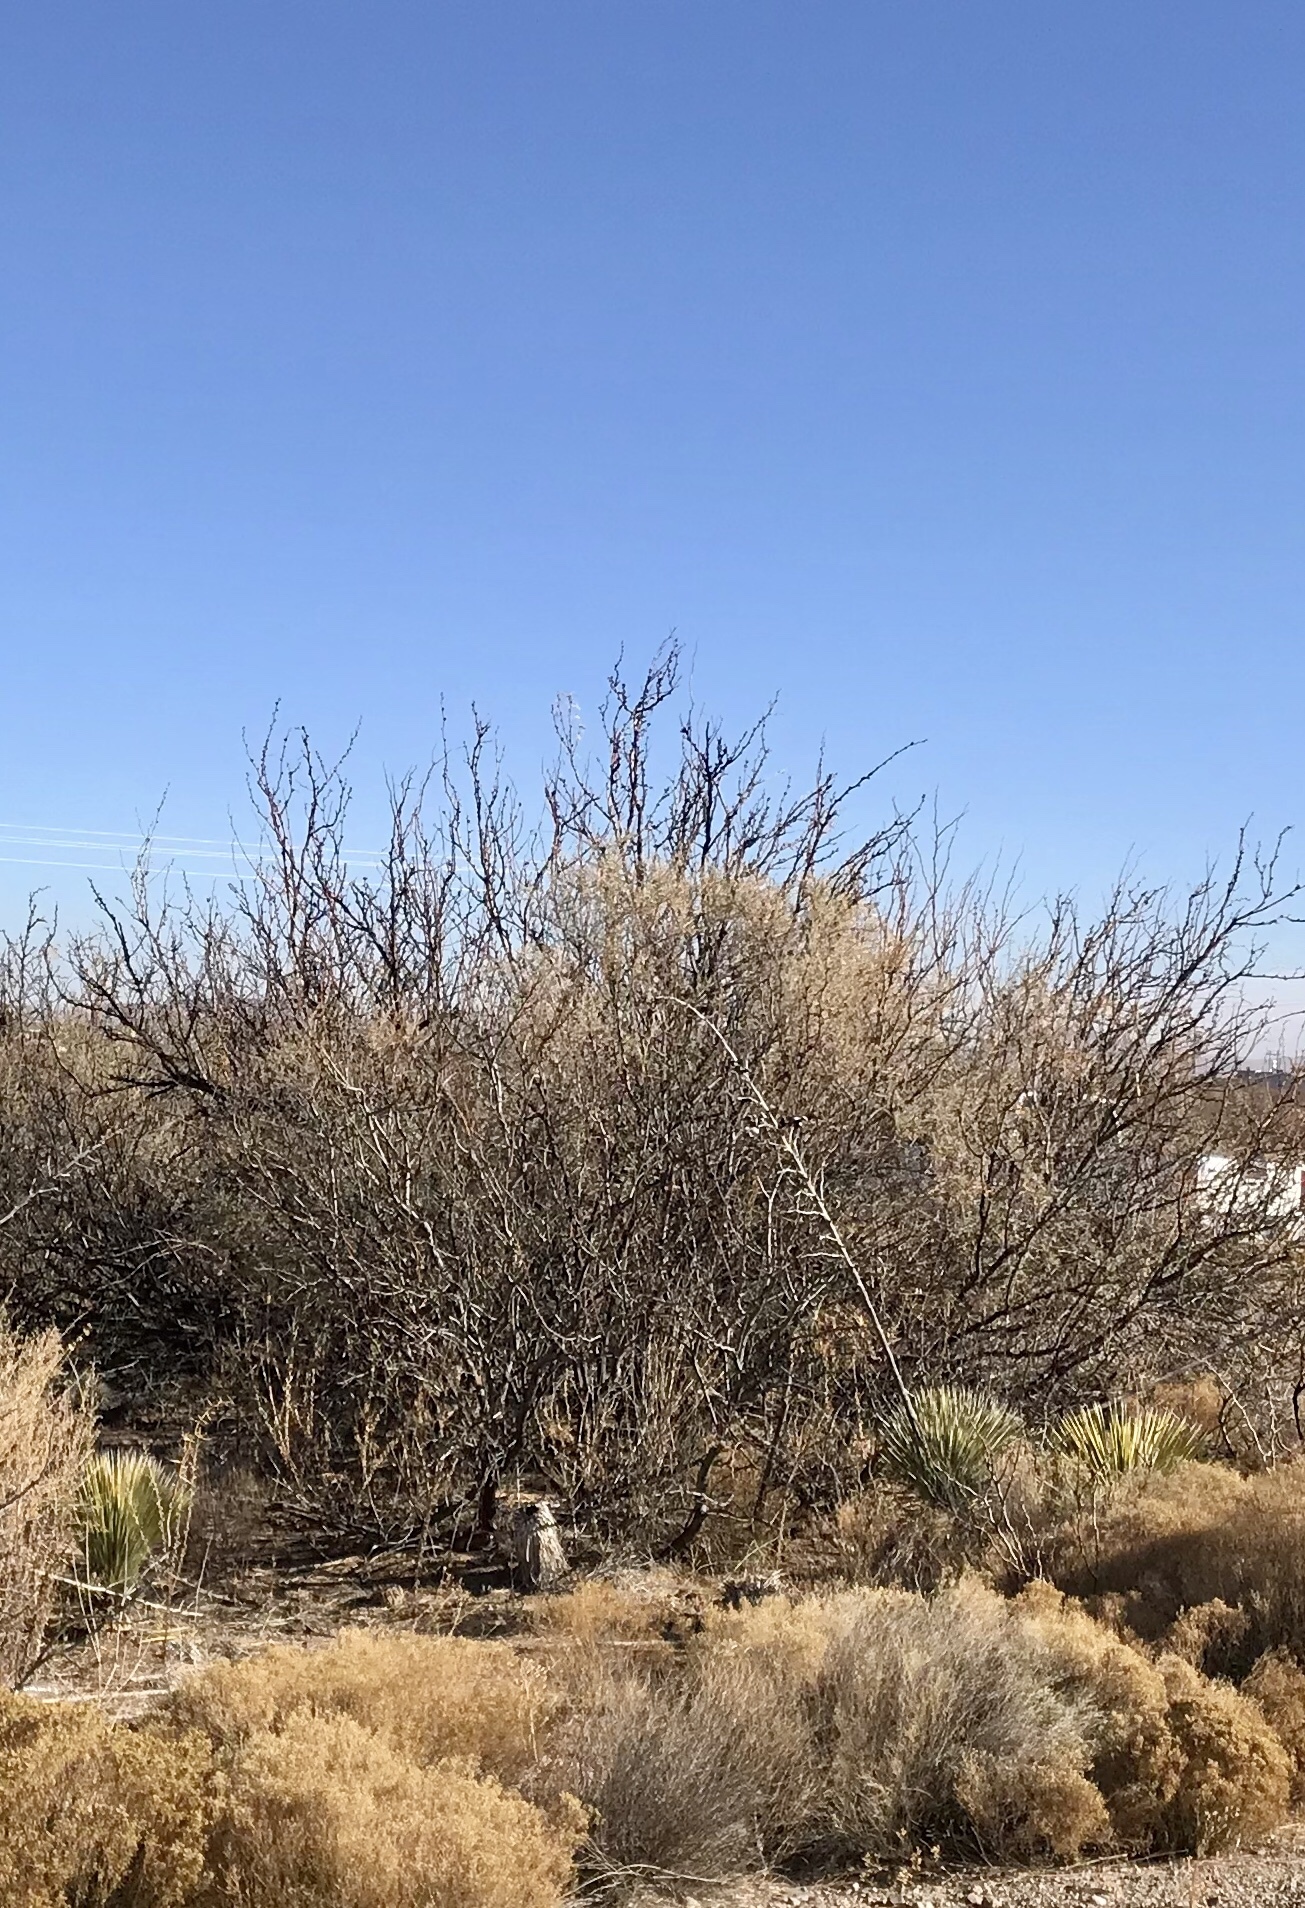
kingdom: Plantae
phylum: Tracheophyta
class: Magnoliopsida
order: Fabales
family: Fabaceae
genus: Prosopis
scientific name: Prosopis glandulosa
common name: Honey mesquite
